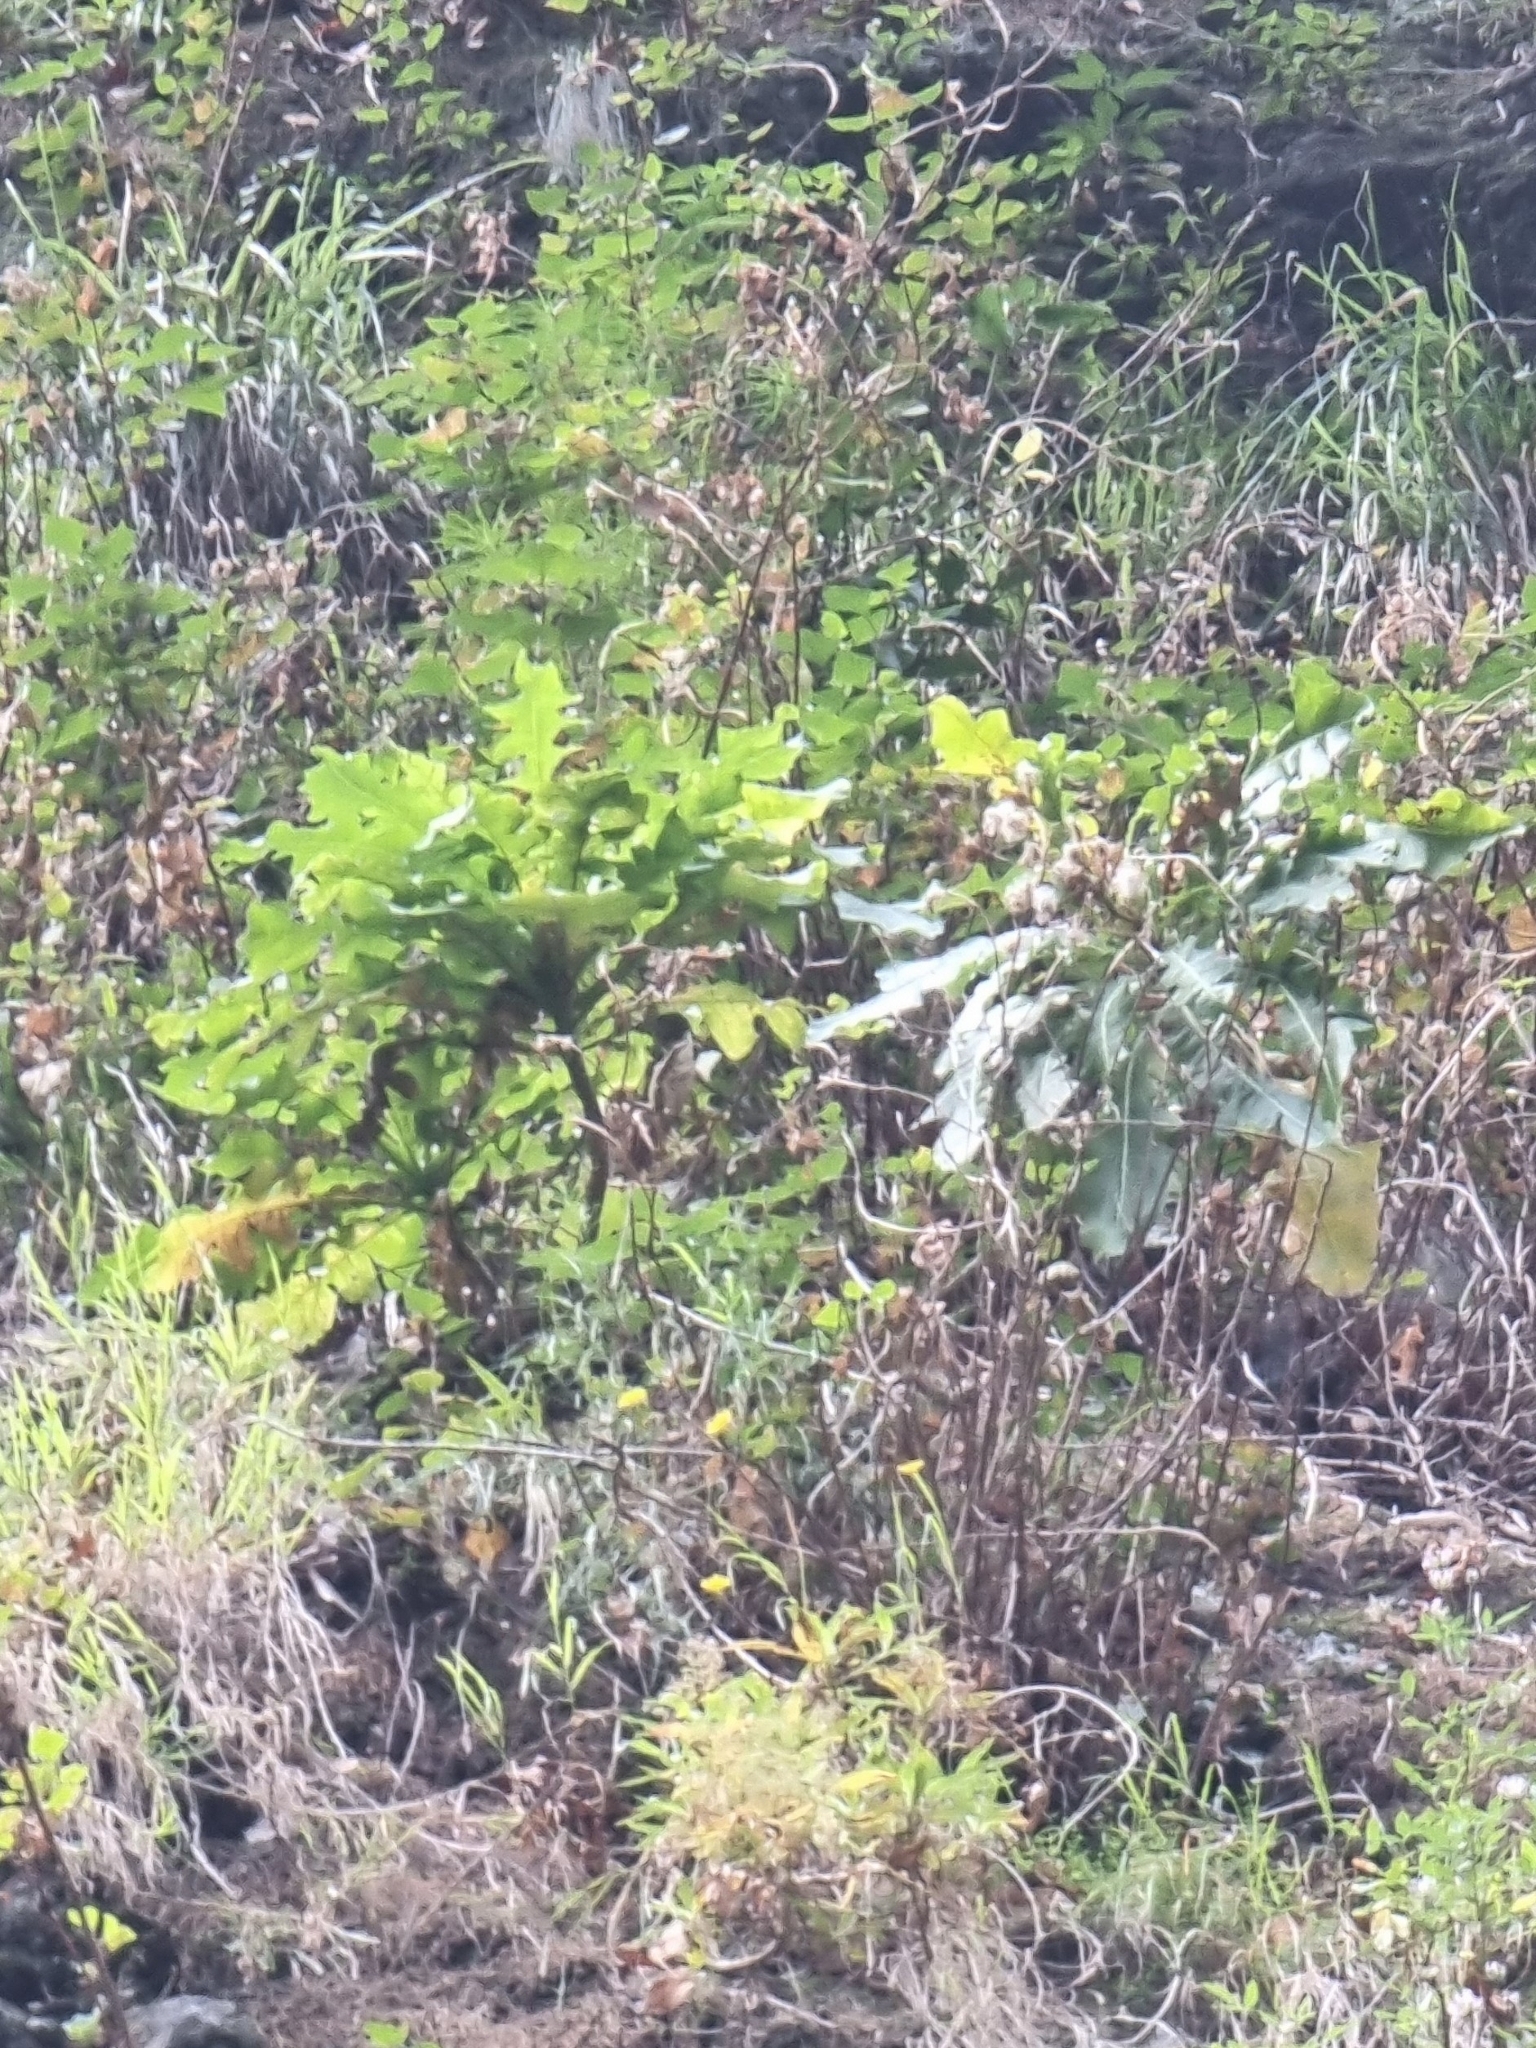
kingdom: Plantae
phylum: Tracheophyta
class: Magnoliopsida
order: Asterales
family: Asteraceae
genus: Sonchus
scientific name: Sonchus fruticosus
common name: Shrubby sow-thistle
